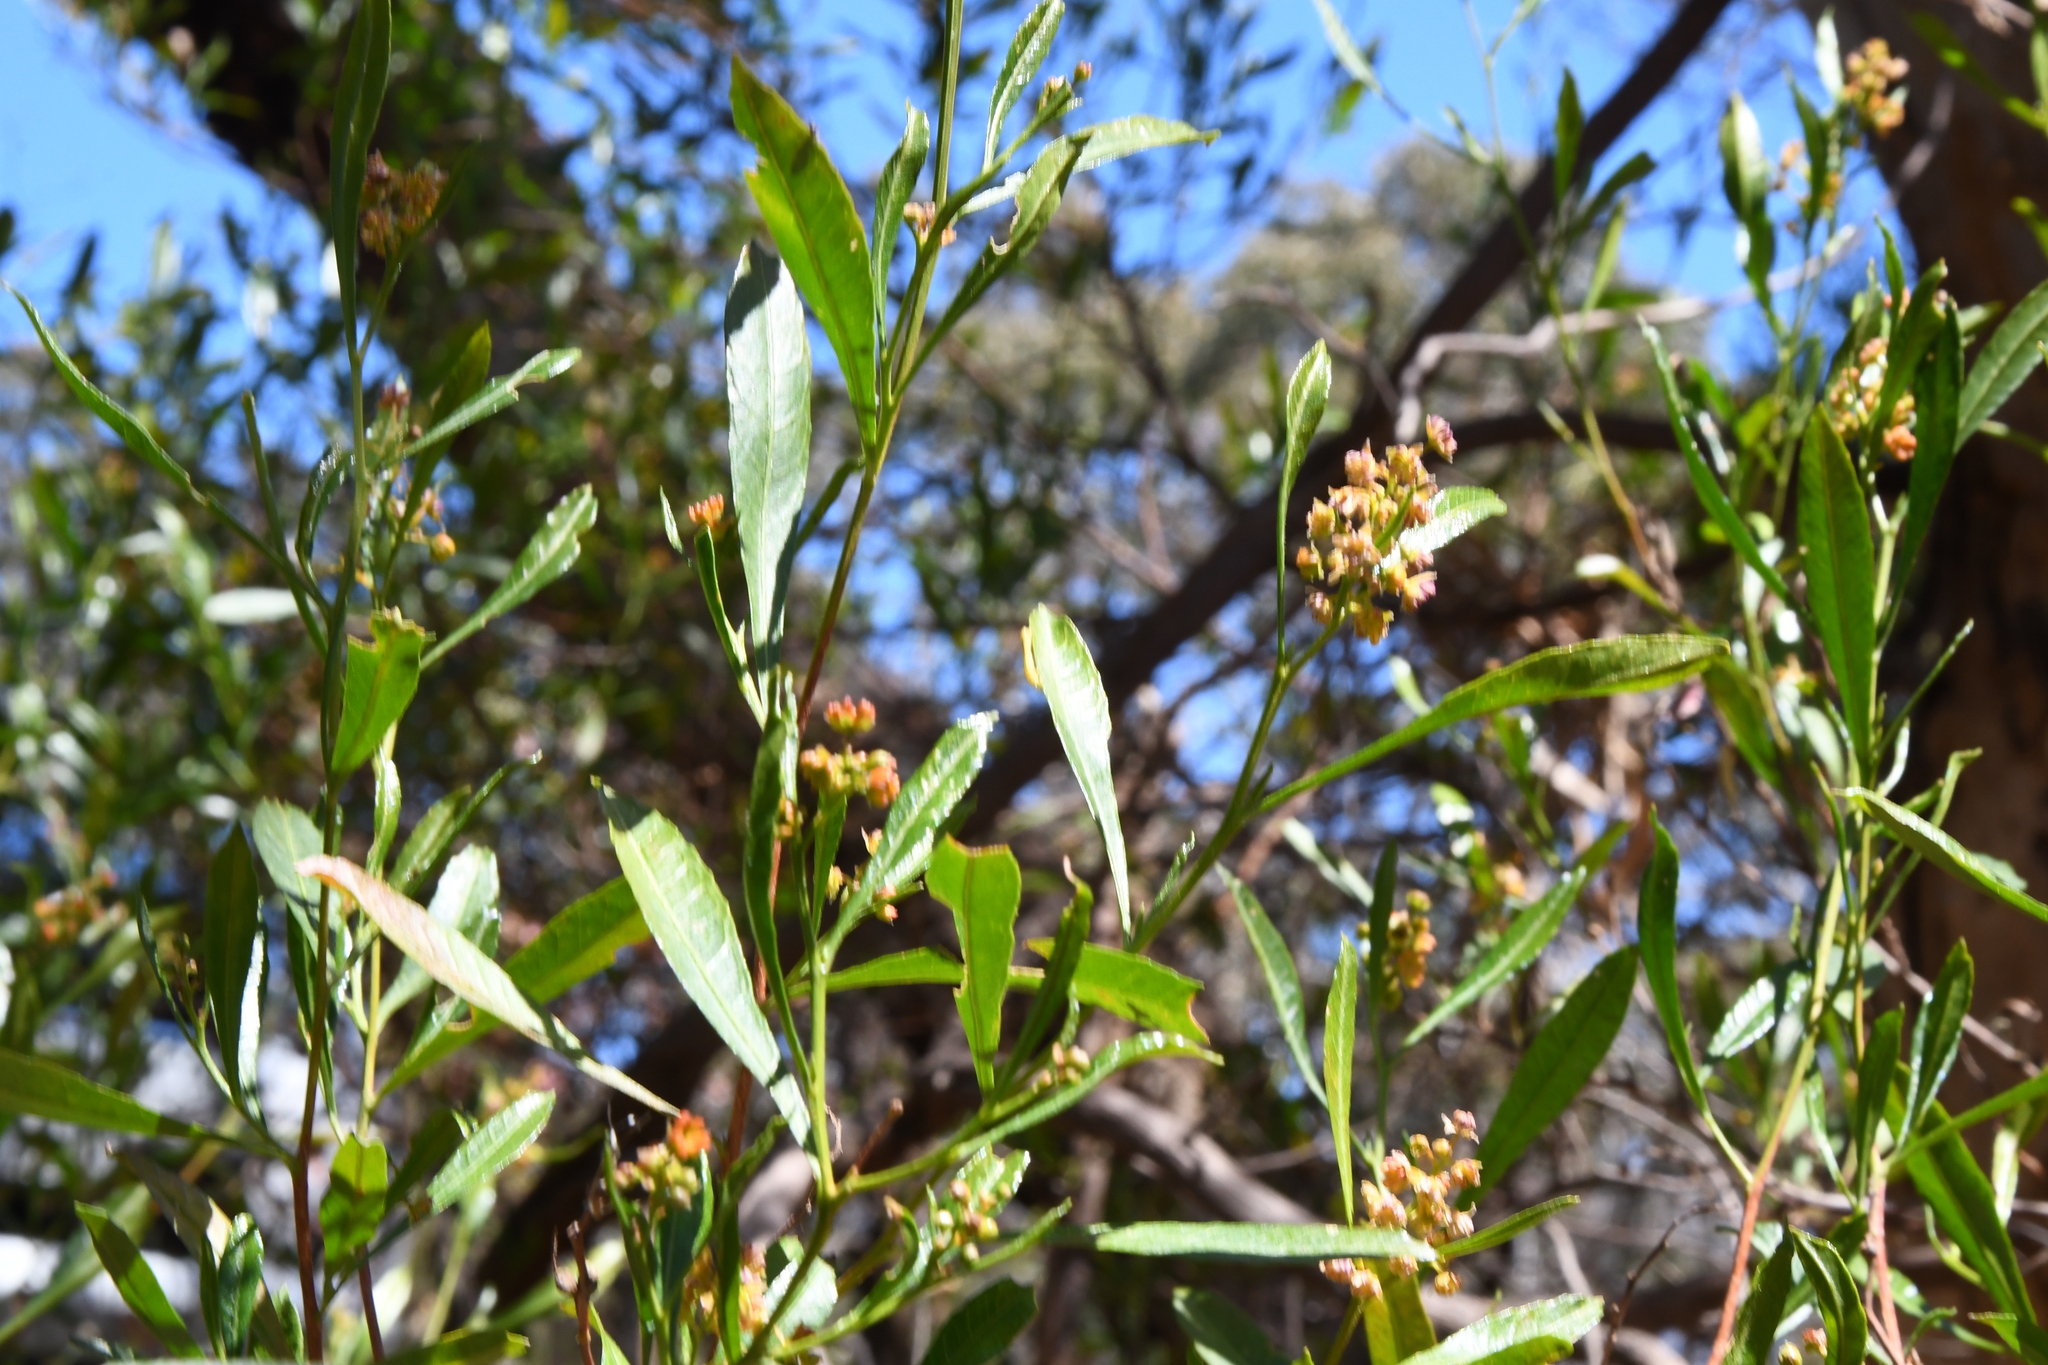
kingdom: Plantae
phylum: Tracheophyta
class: Magnoliopsida
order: Sapindales
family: Sapindaceae
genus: Dodonaea
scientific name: Dodonaea viscosa
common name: Hopbush
